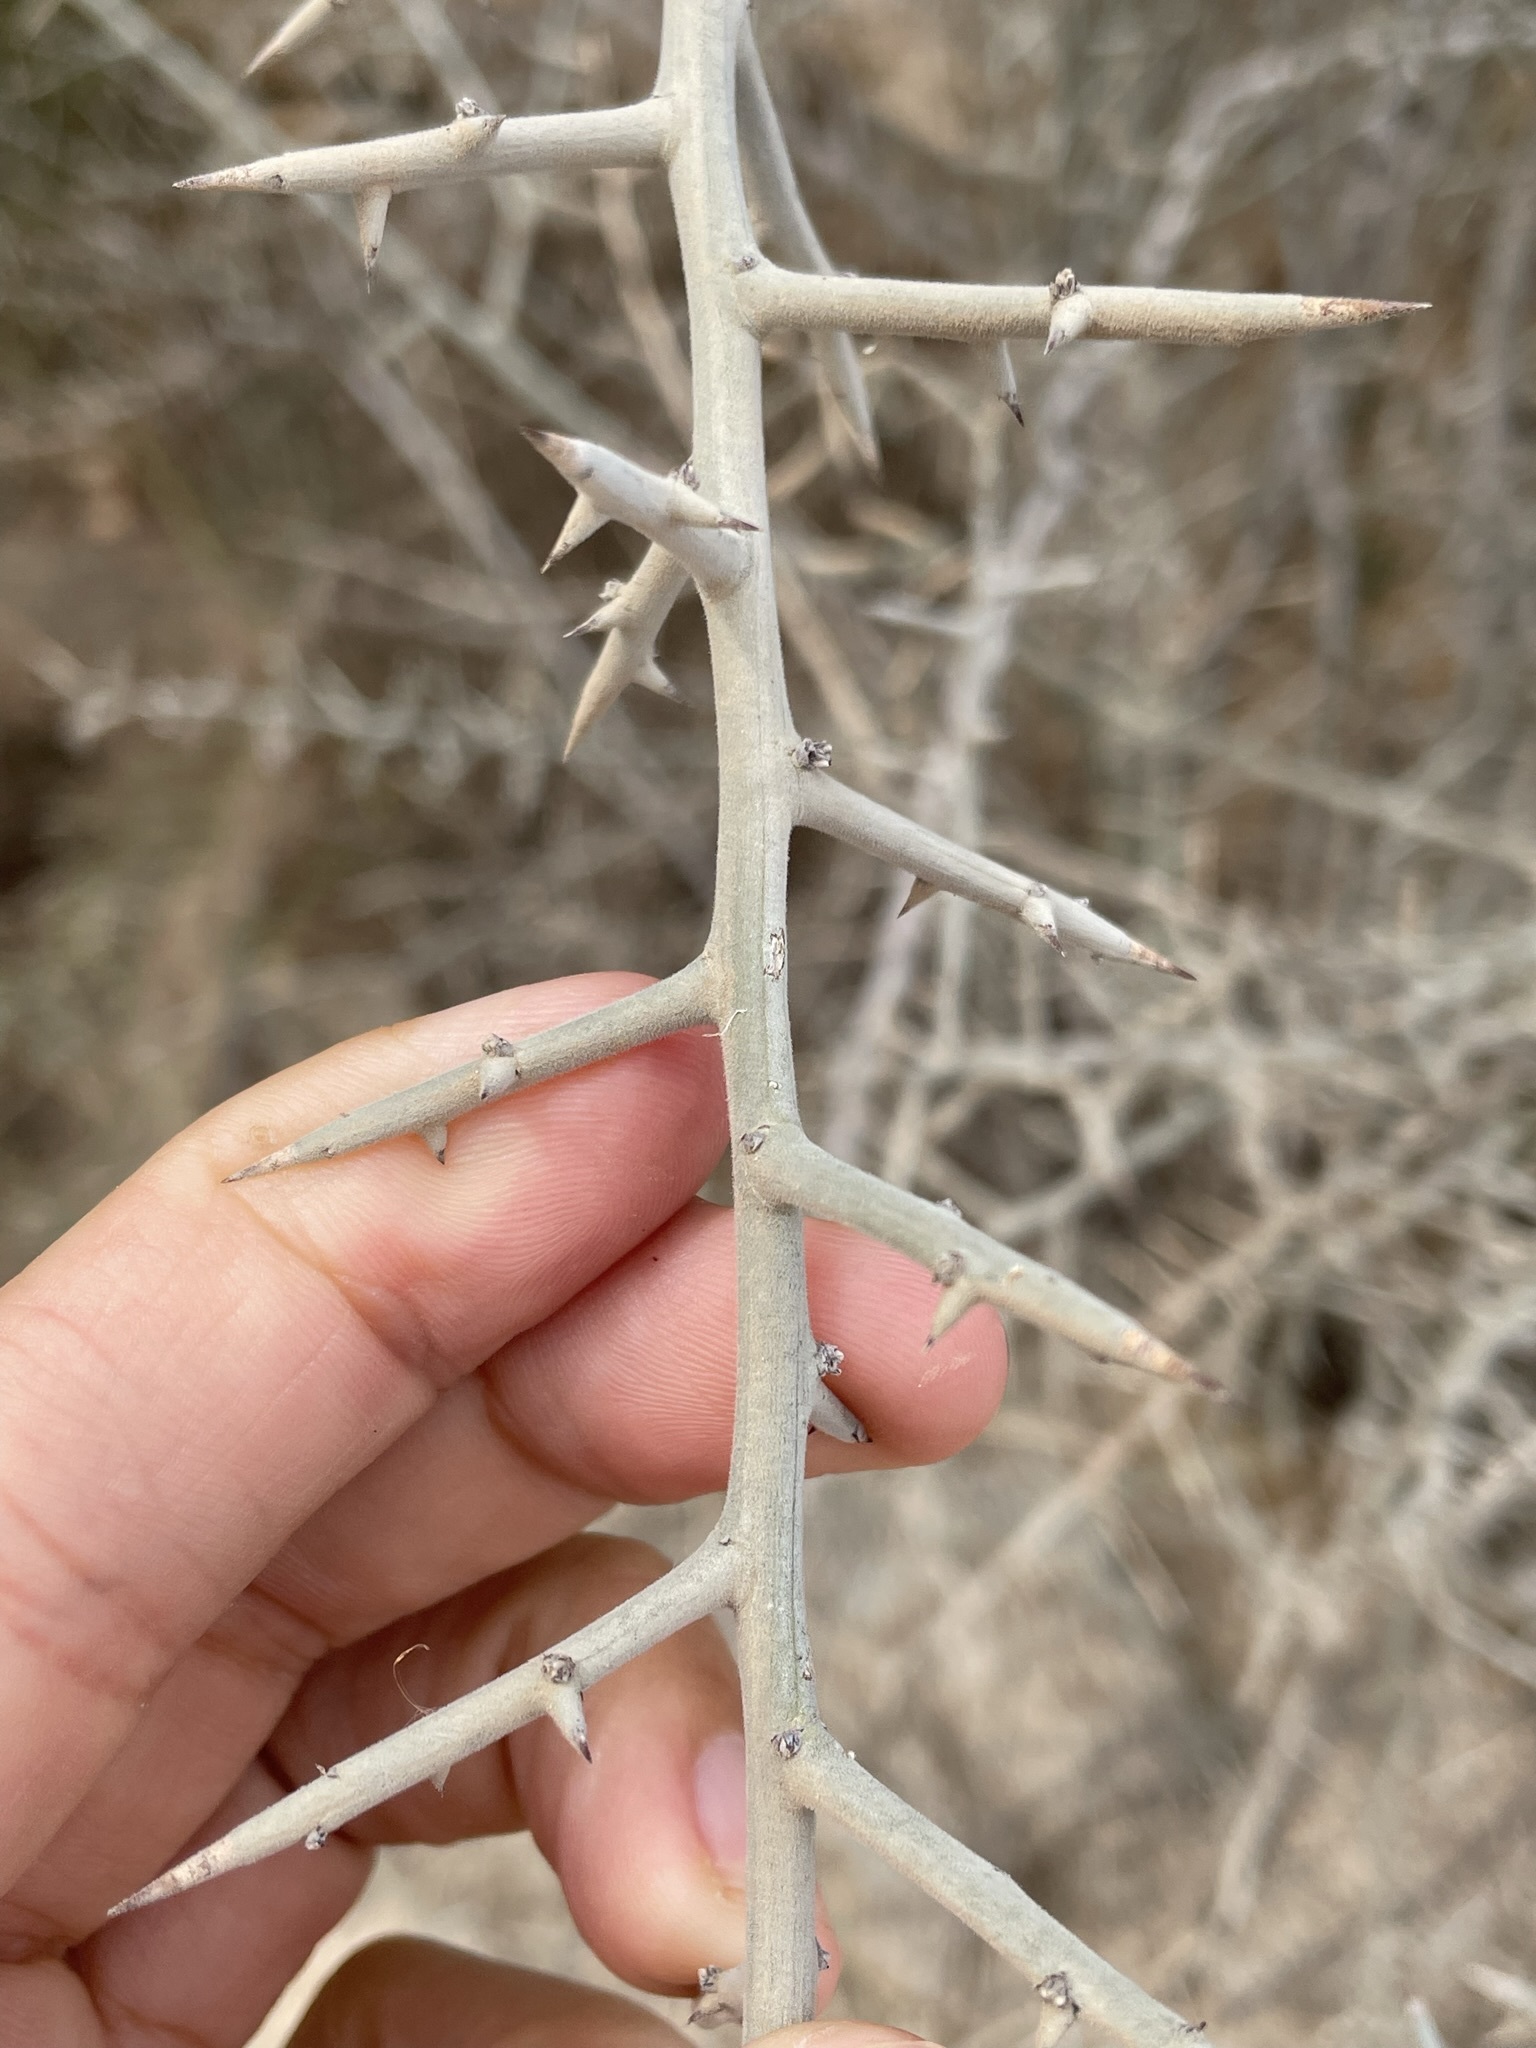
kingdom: Plantae
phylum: Tracheophyta
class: Magnoliopsida
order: Rosales
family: Rhamnaceae
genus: Sarcomphalus
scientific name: Sarcomphalus obtusifolius
